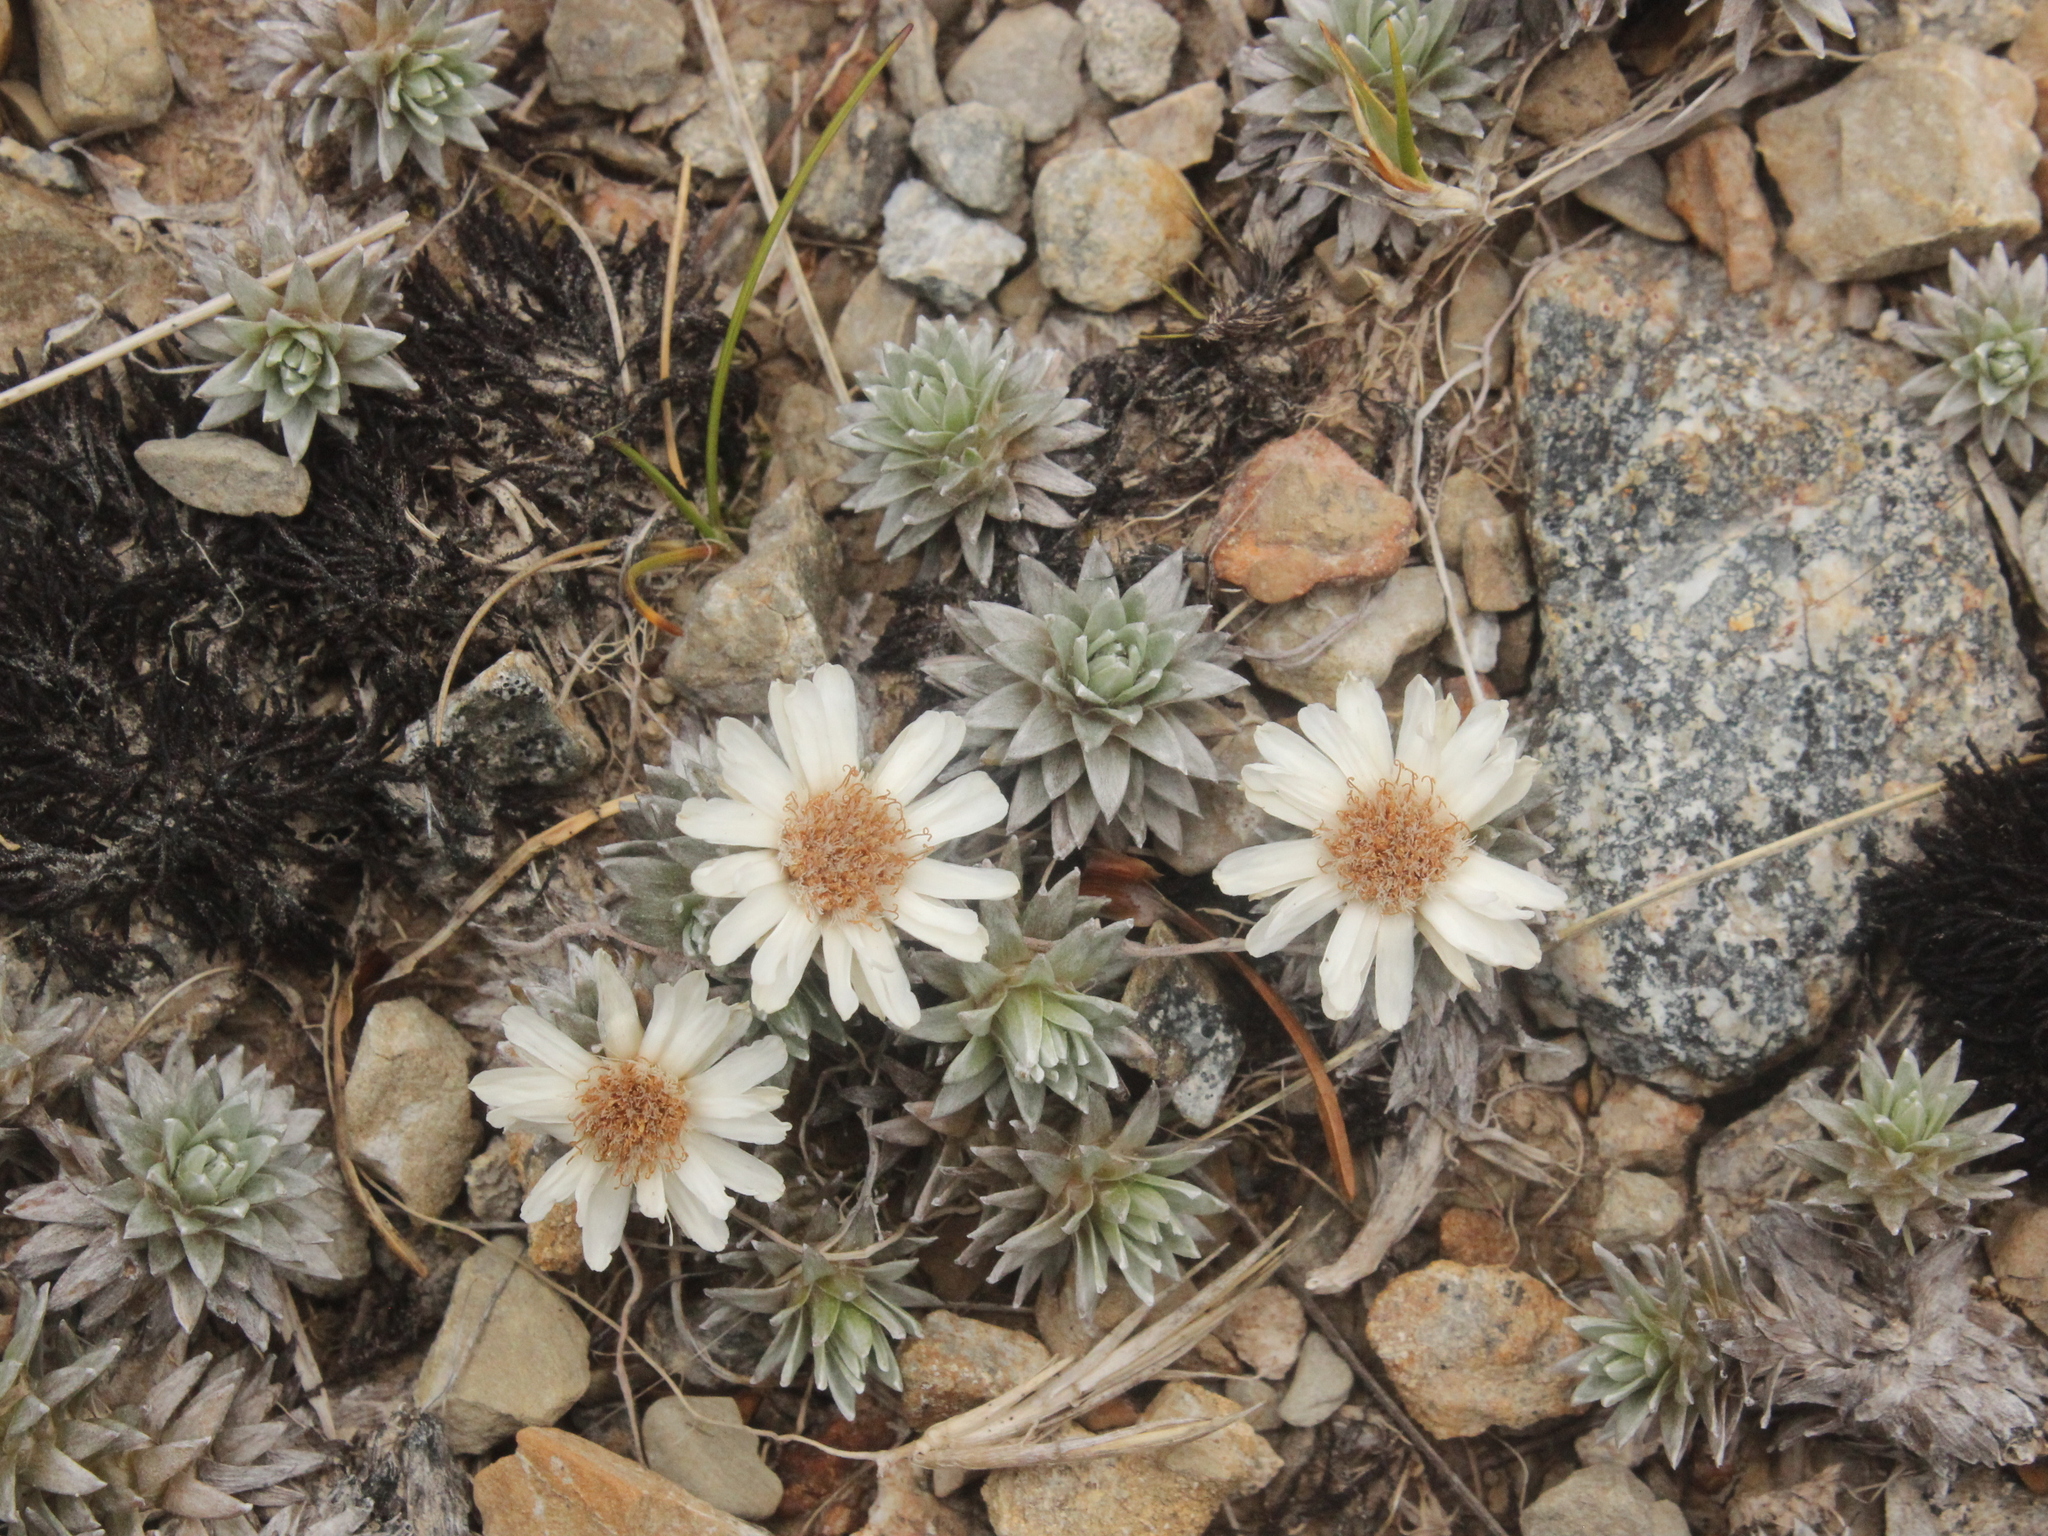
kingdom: Plantae
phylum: Tracheophyta
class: Magnoliopsida
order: Asterales
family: Asteraceae
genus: Raoulia
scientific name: Raoulia grandiflora
